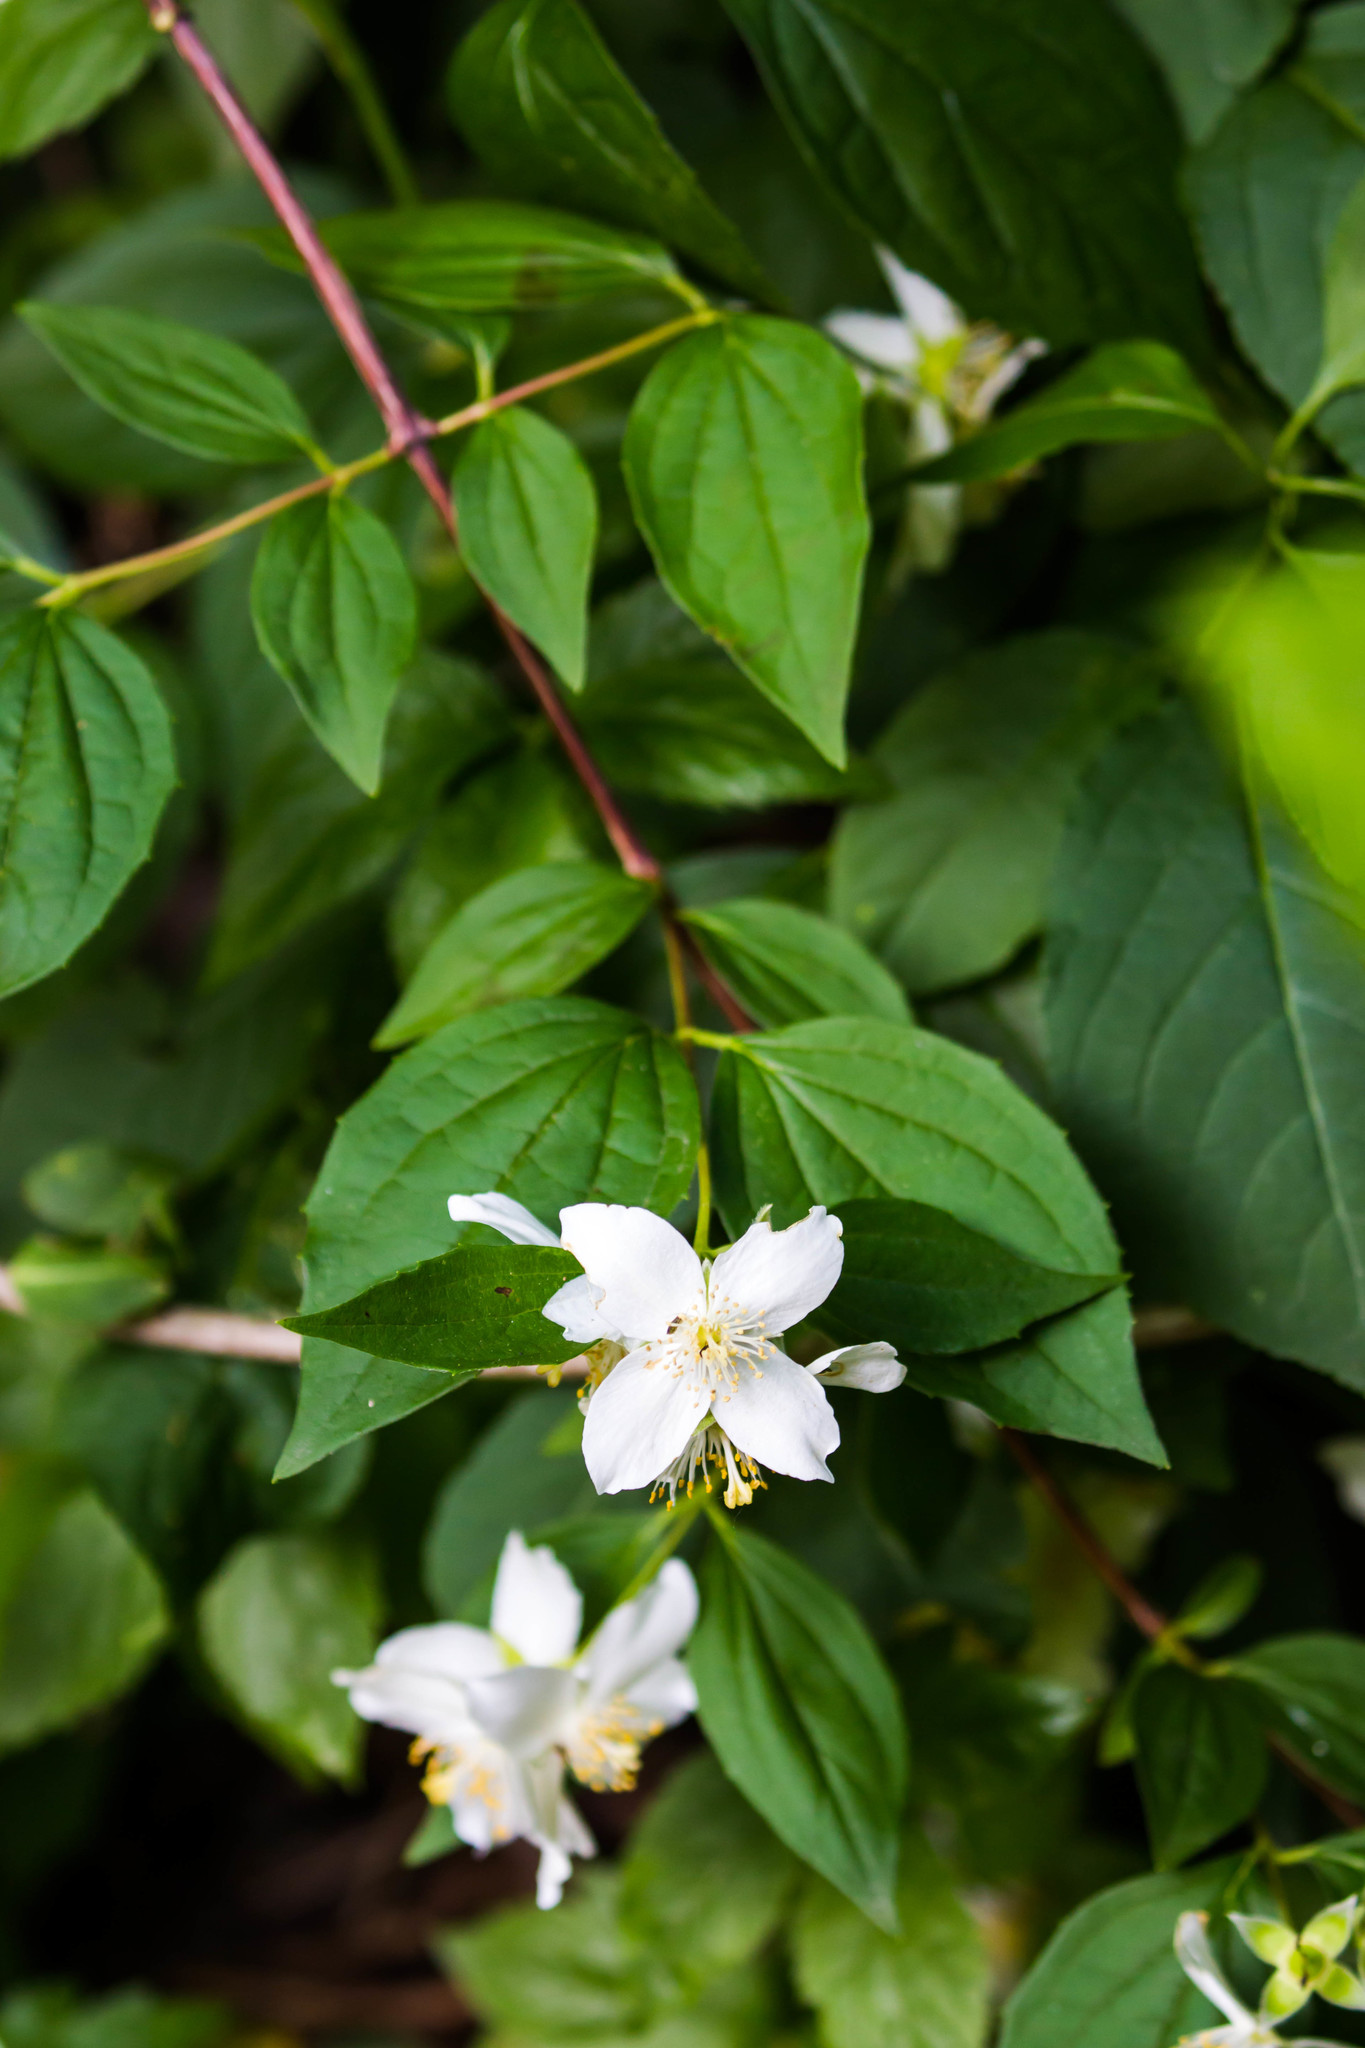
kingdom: Plantae
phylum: Tracheophyta
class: Magnoliopsida
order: Rosales
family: Rosaceae
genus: Rosa
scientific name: Rosa multiflora
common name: Multiflora rose
